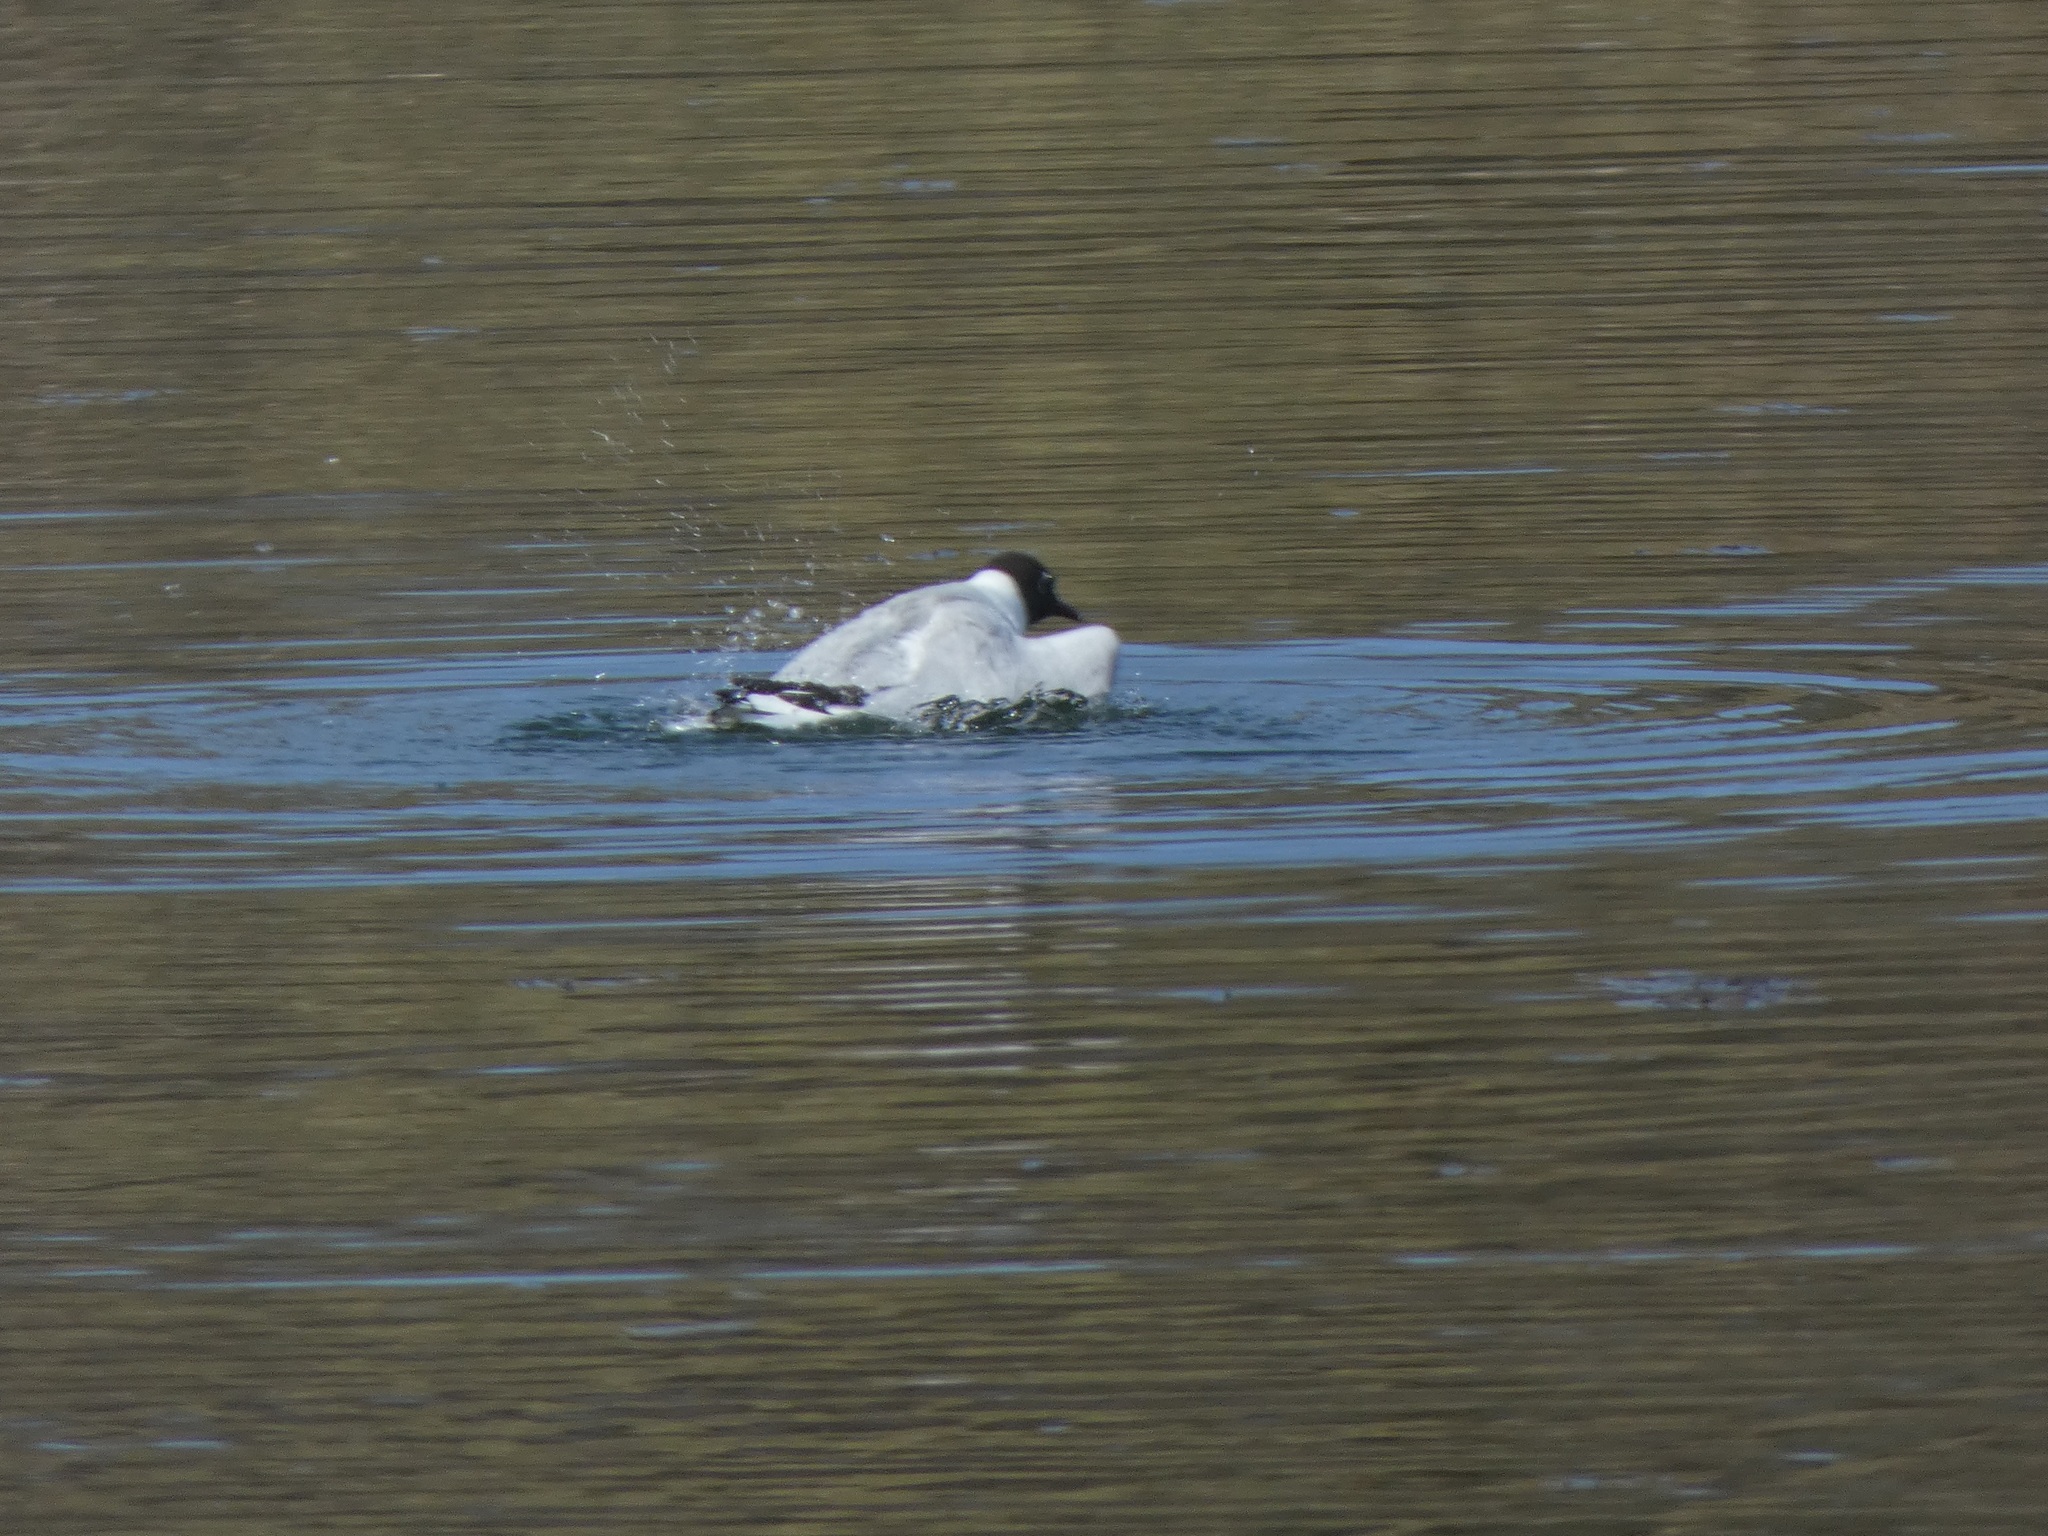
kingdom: Animalia
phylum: Chordata
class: Aves
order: Charadriiformes
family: Laridae
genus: Chroicocephalus
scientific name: Chroicocephalus ridibundus
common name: Black-headed gull
